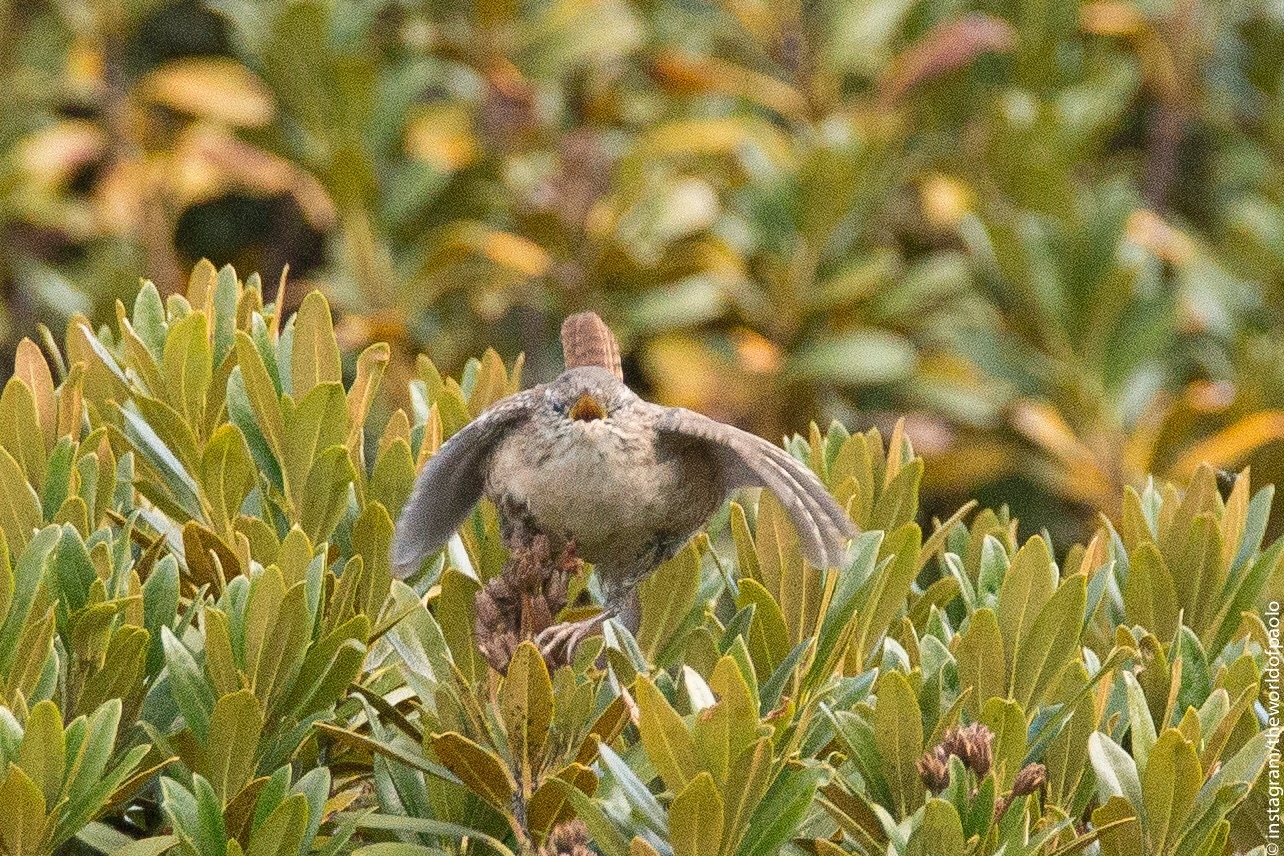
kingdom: Animalia
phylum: Chordata
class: Aves
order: Passeriformes
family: Troglodytidae
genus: Troglodytes
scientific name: Troglodytes troglodytes
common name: Eurasian wren
